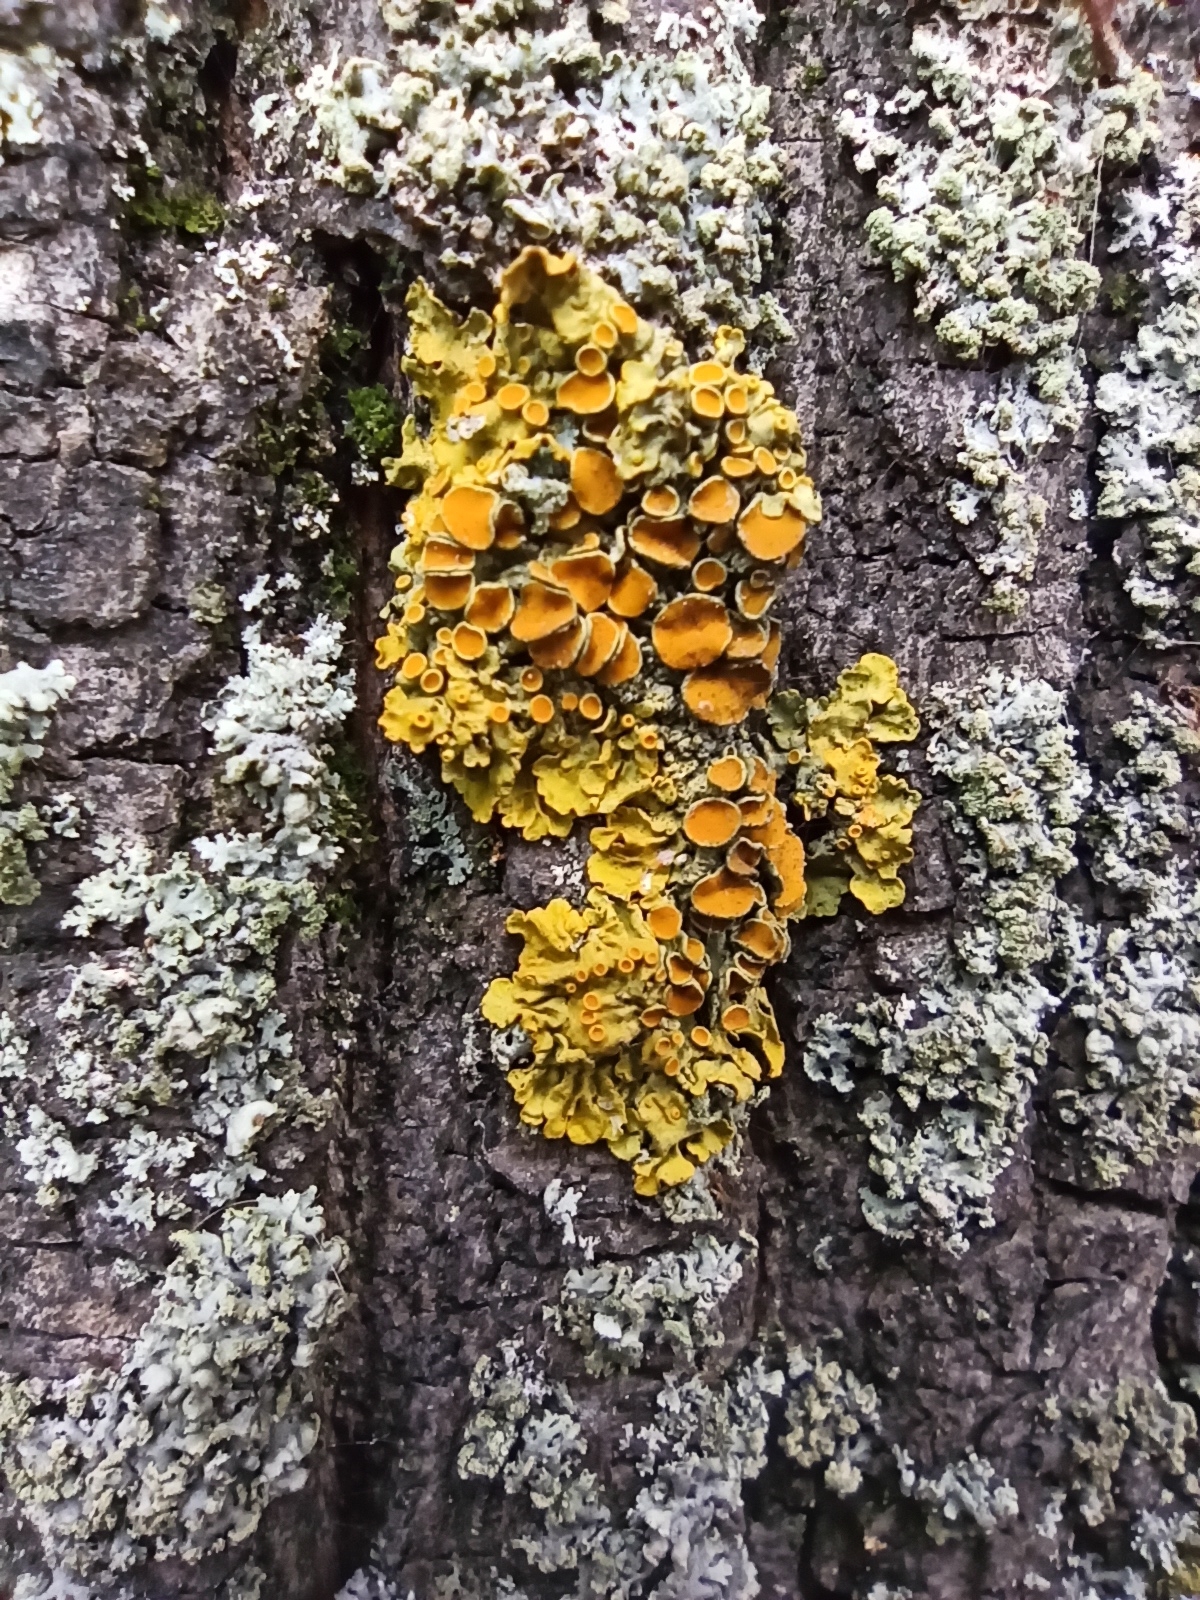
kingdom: Fungi
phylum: Ascomycota
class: Lecanoromycetes
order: Teloschistales
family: Teloschistaceae
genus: Xanthoria
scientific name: Xanthoria parietina
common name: Common orange lichen
